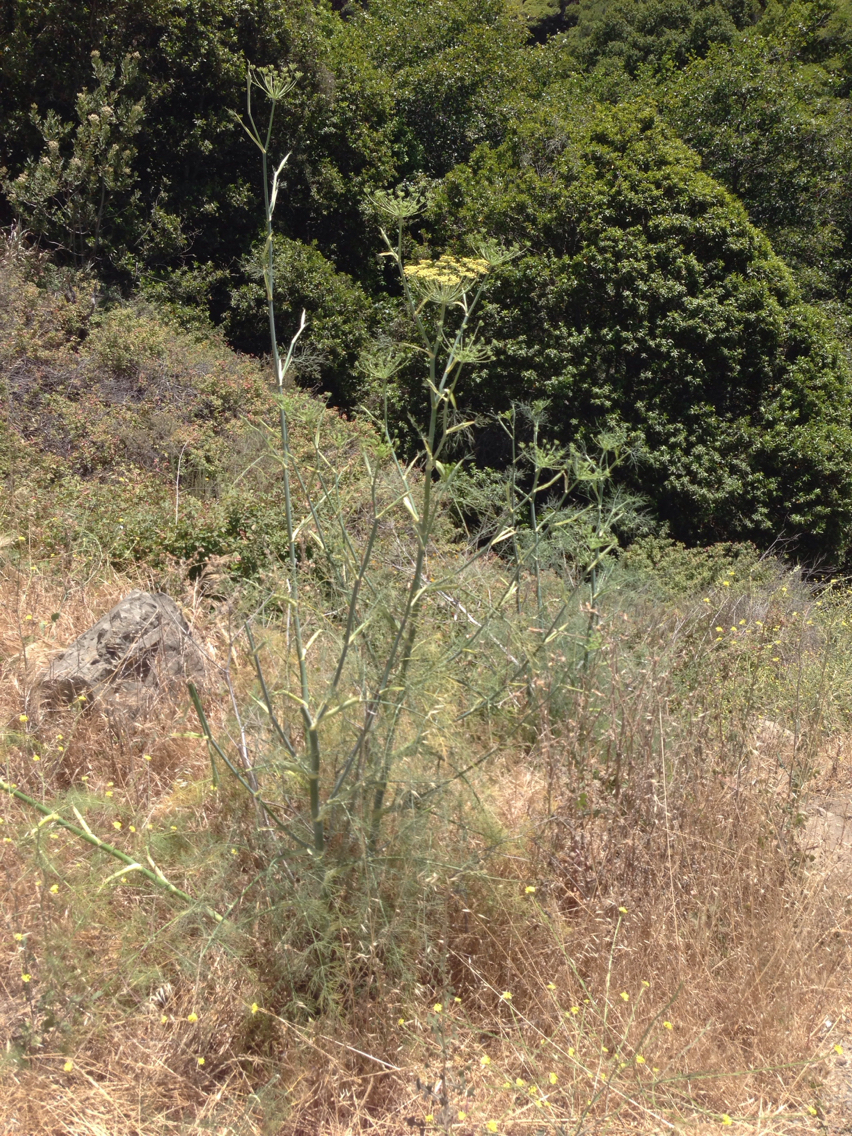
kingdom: Plantae
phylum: Tracheophyta
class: Magnoliopsida
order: Apiales
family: Apiaceae
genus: Foeniculum
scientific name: Foeniculum vulgare
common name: Fennel
